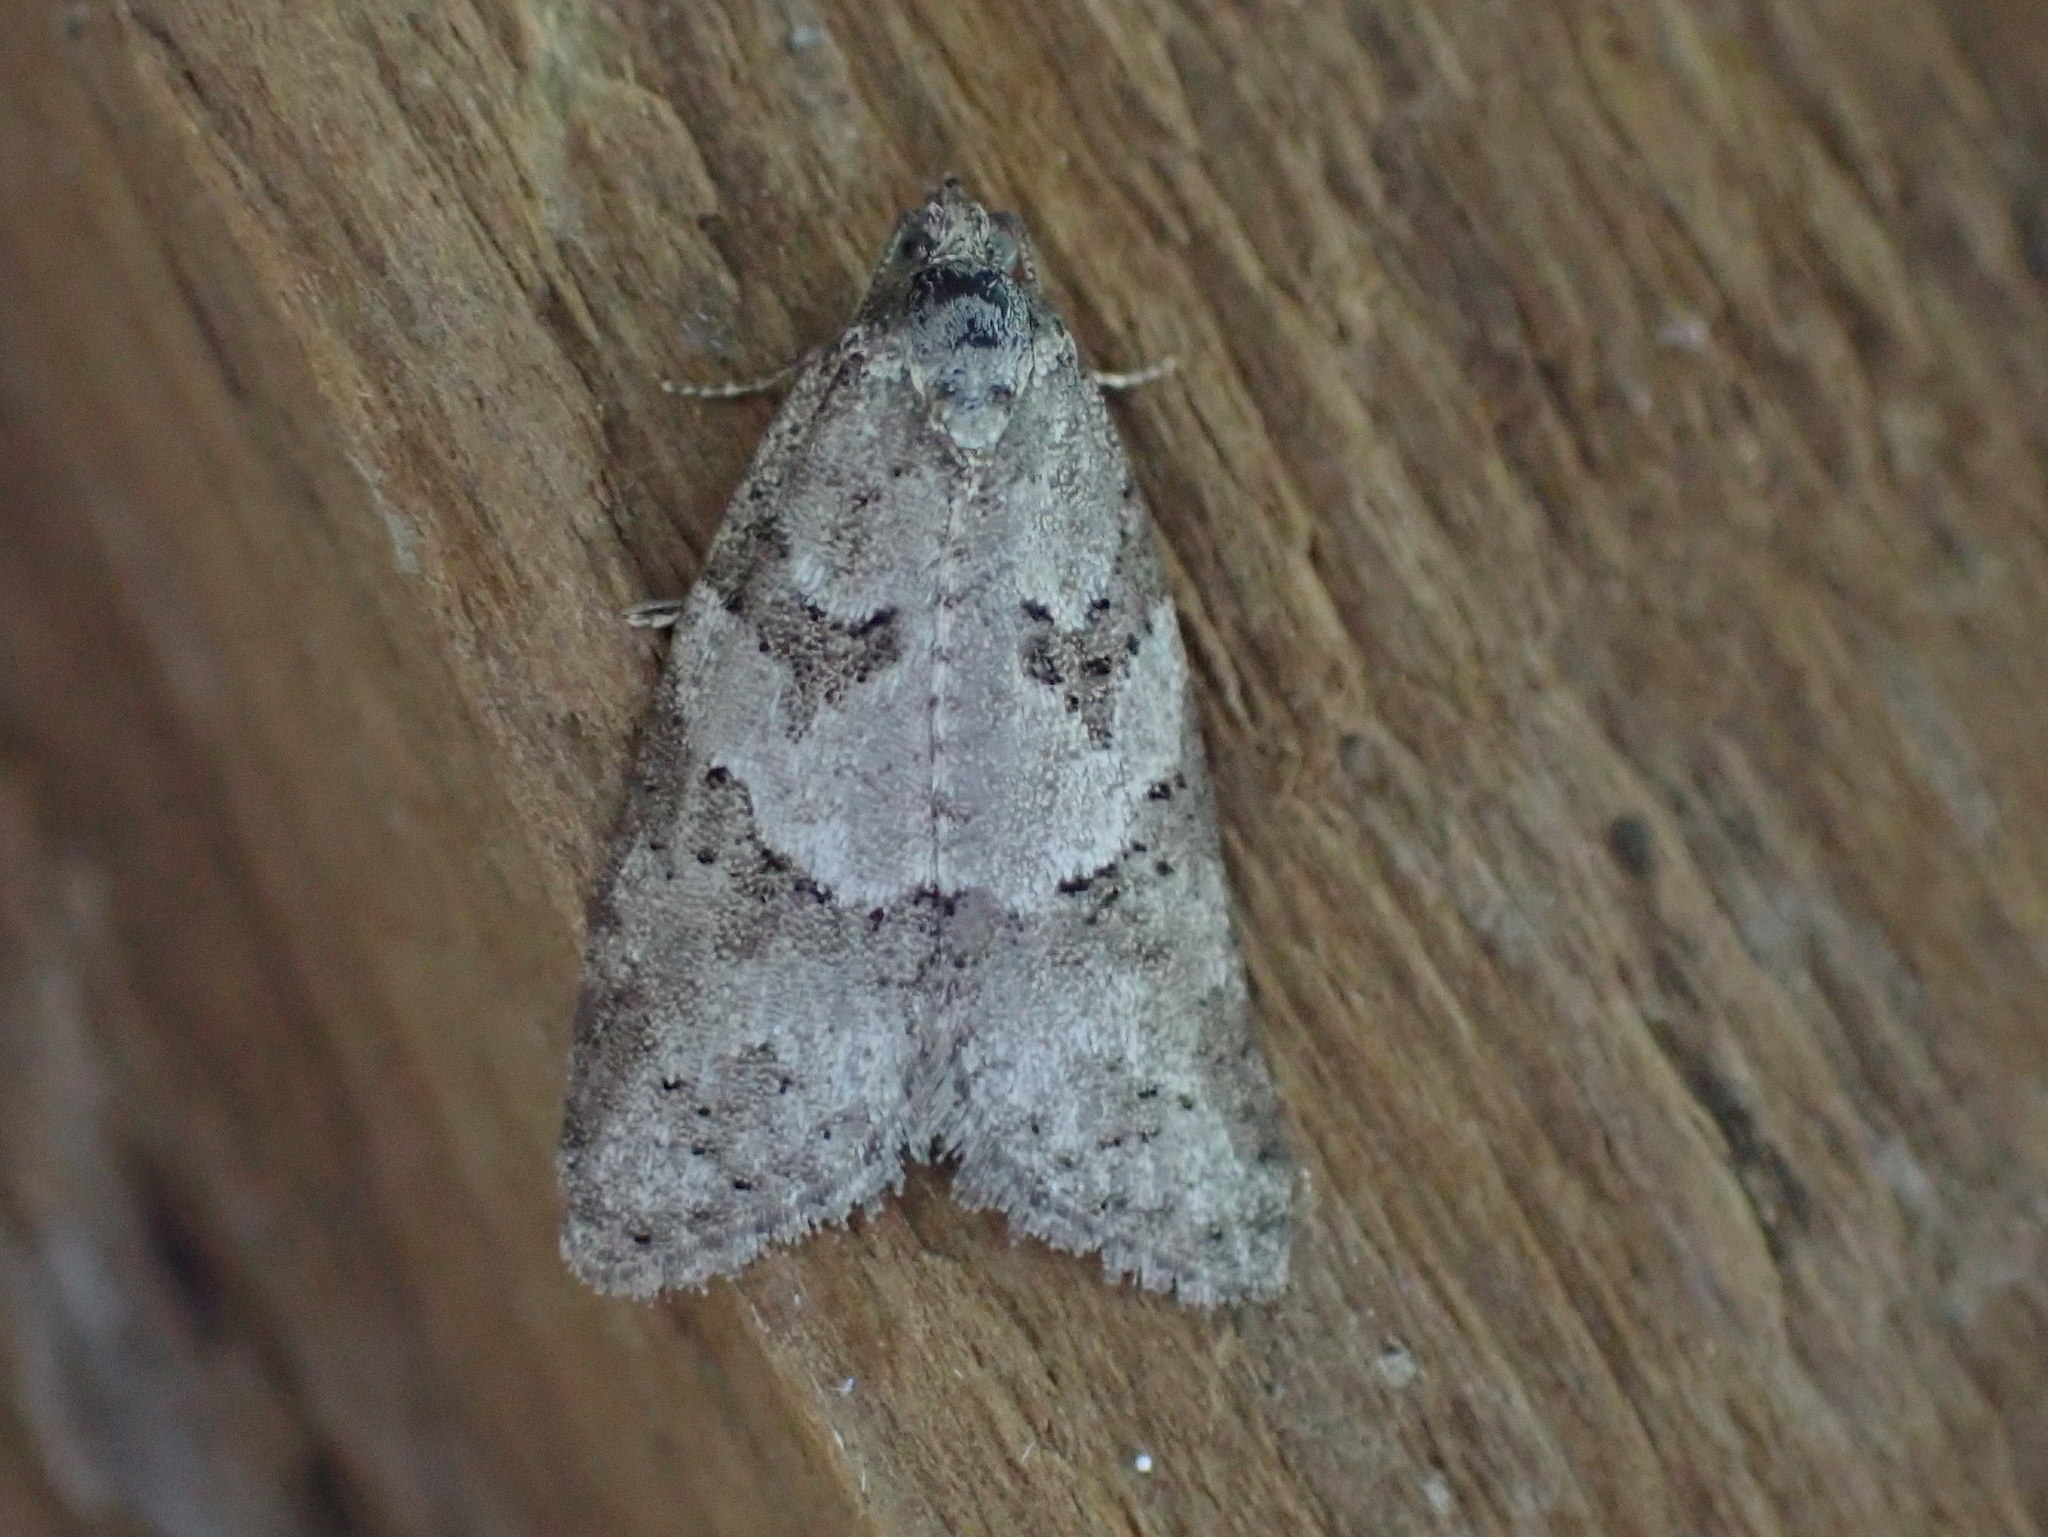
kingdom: Animalia
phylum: Arthropoda
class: Insecta
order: Lepidoptera
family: Tortricidae
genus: Cnephasia
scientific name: Cnephasia stephensiana
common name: Grey tortrix
